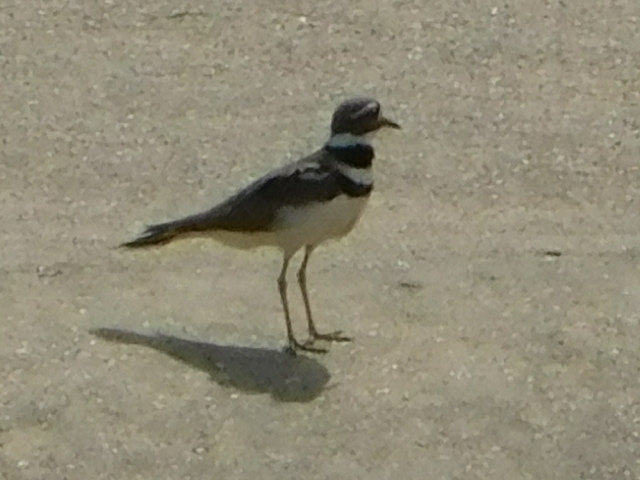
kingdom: Animalia
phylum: Chordata
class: Aves
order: Charadriiformes
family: Charadriidae
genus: Charadrius
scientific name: Charadrius vociferus
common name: Killdeer
